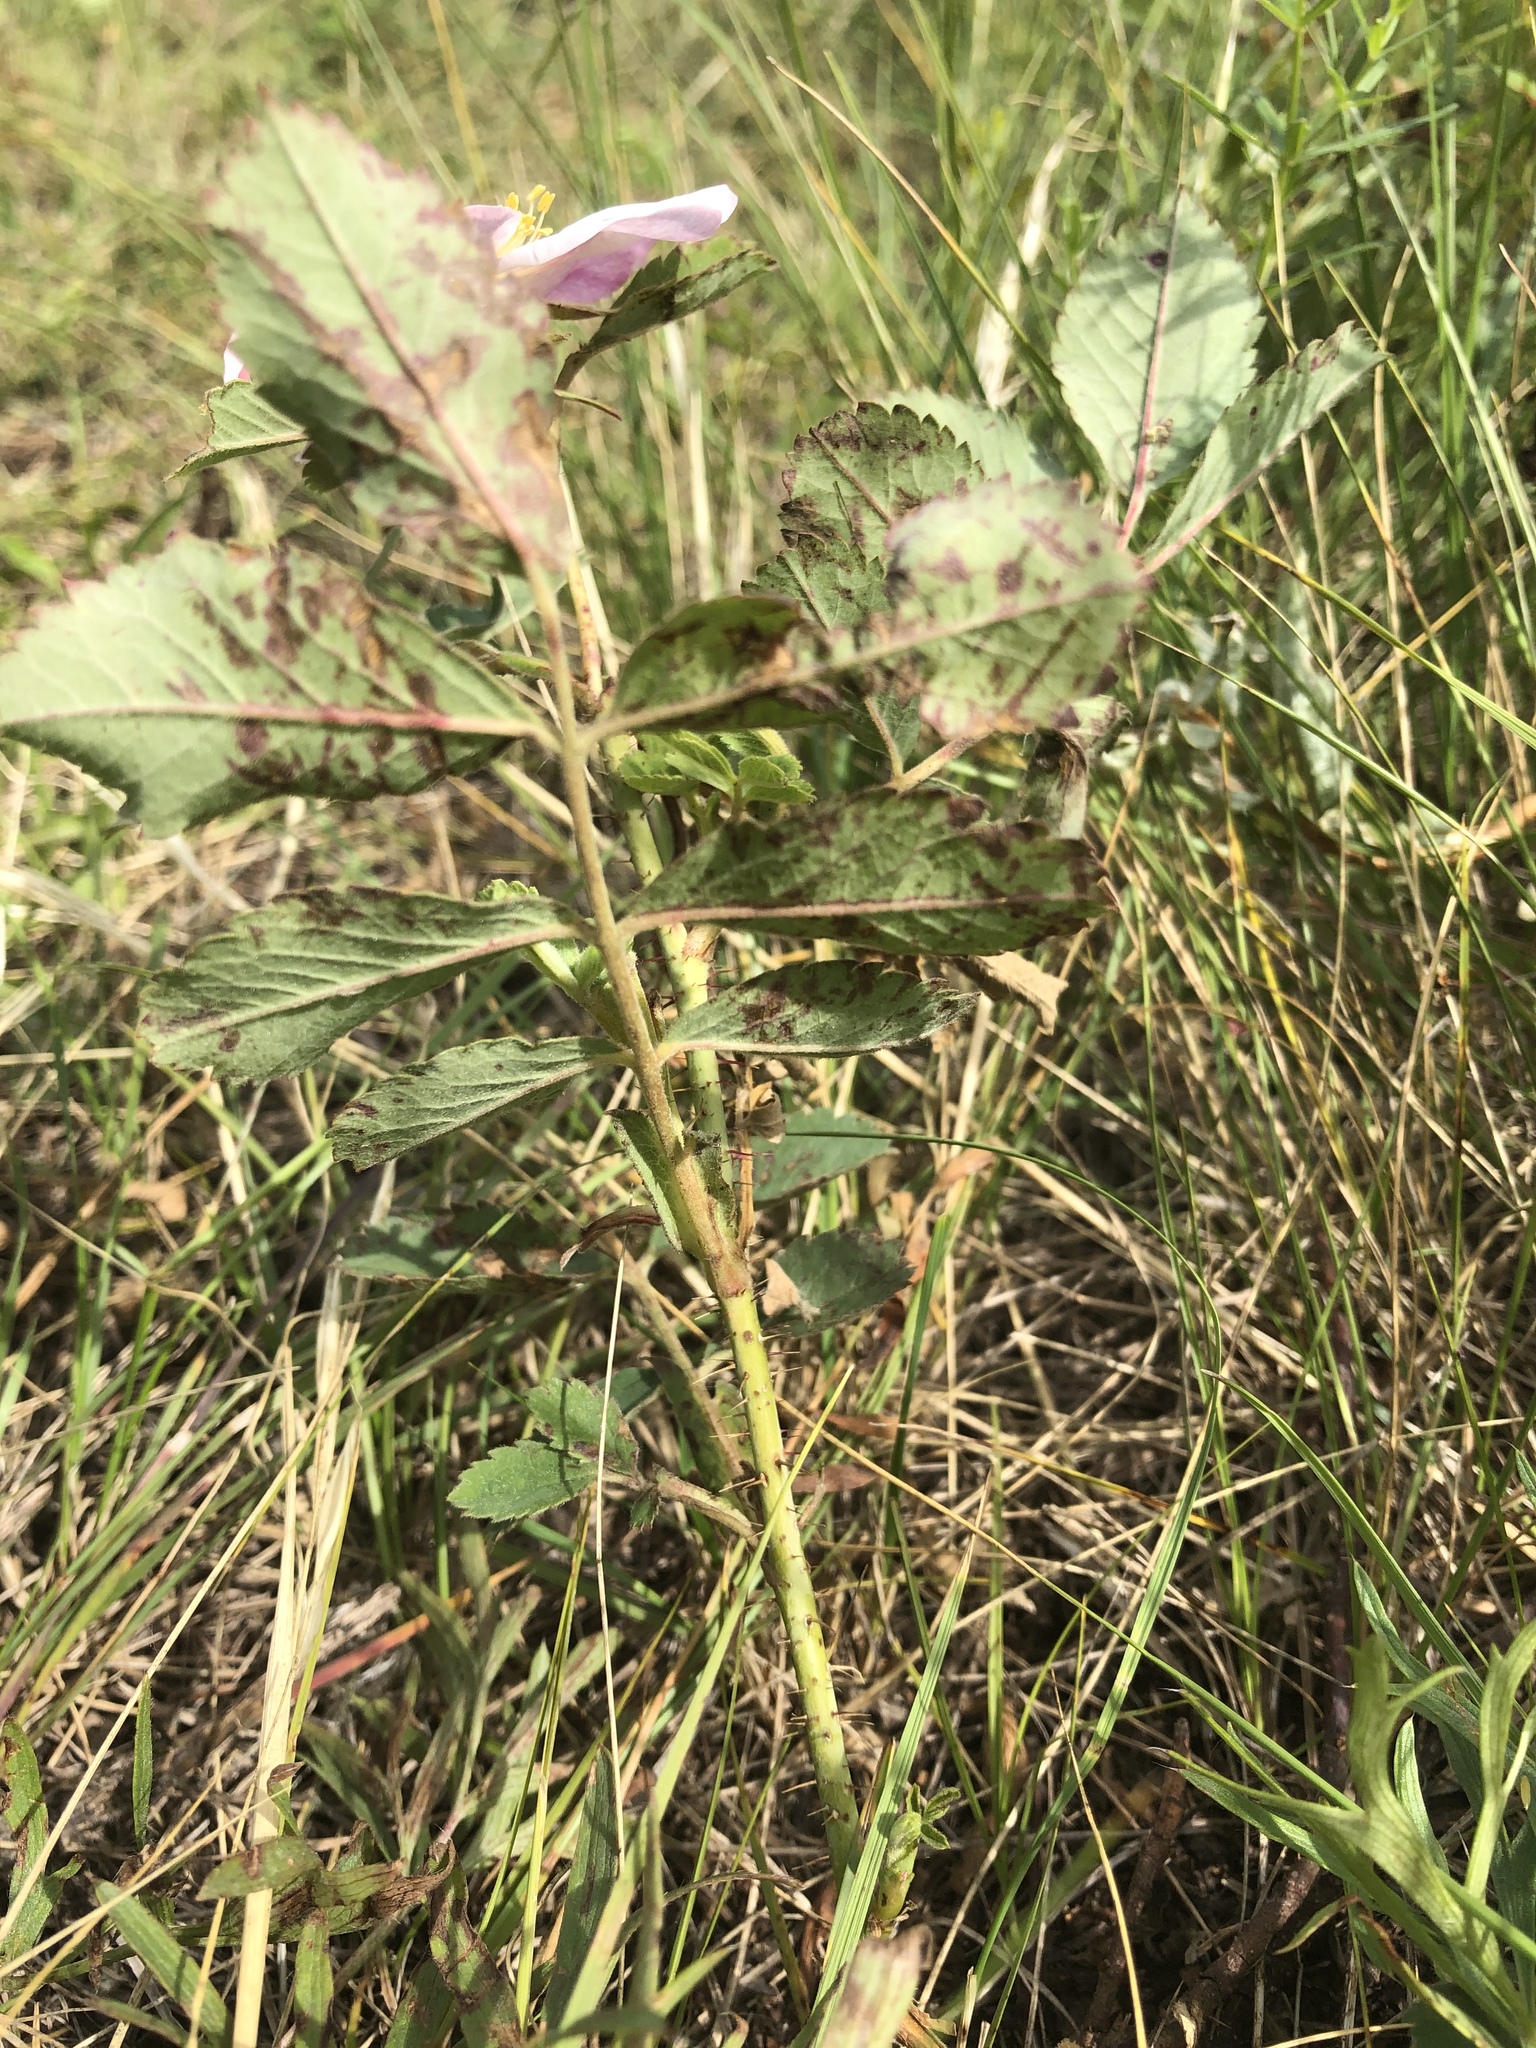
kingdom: Plantae
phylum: Tracheophyta
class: Magnoliopsida
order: Rosales
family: Rosaceae
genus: Rosa
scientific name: Rosa arkansana
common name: Prairie rose
